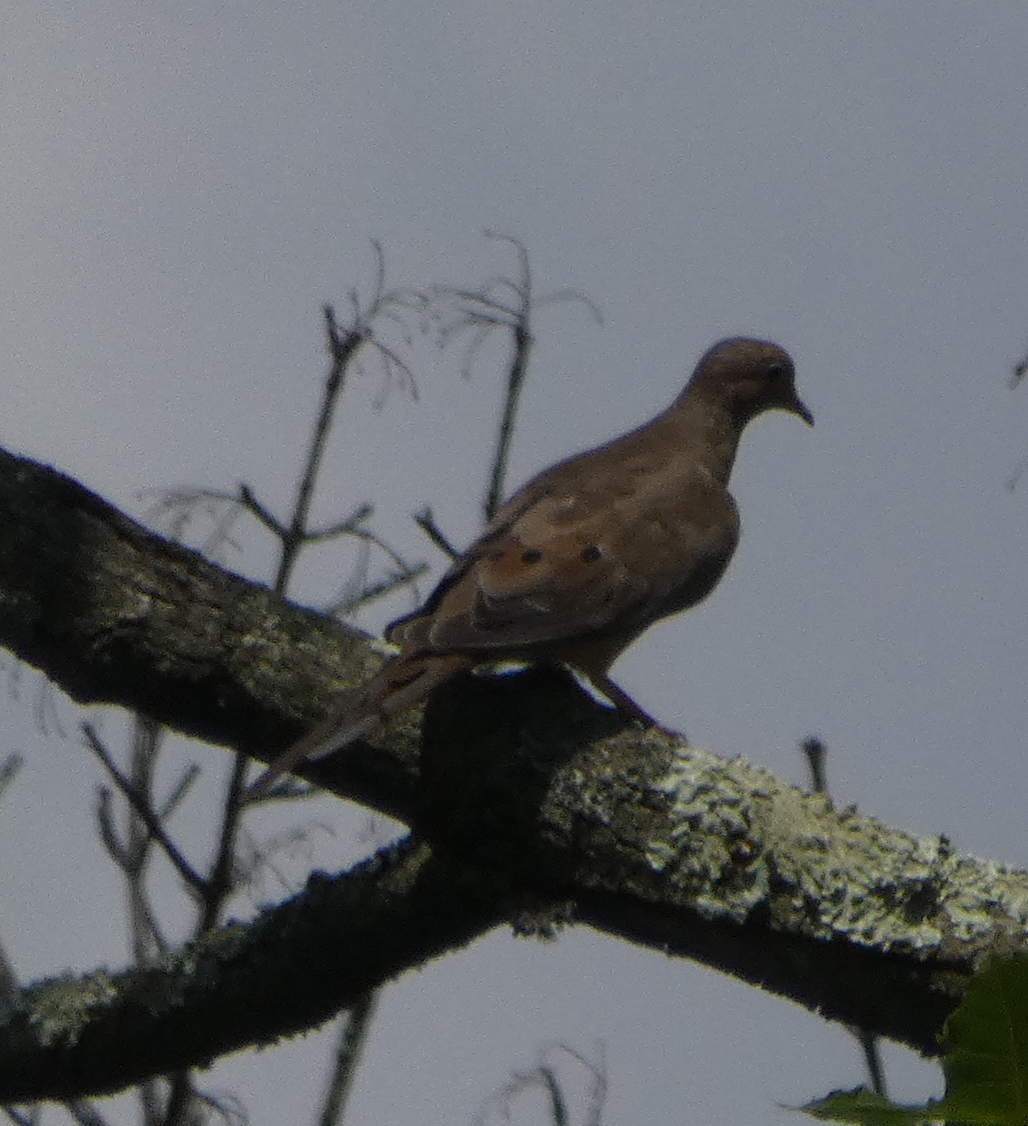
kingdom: Animalia
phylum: Chordata
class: Aves
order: Columbiformes
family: Columbidae
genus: Zenaida
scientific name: Zenaida macroura
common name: Mourning dove
